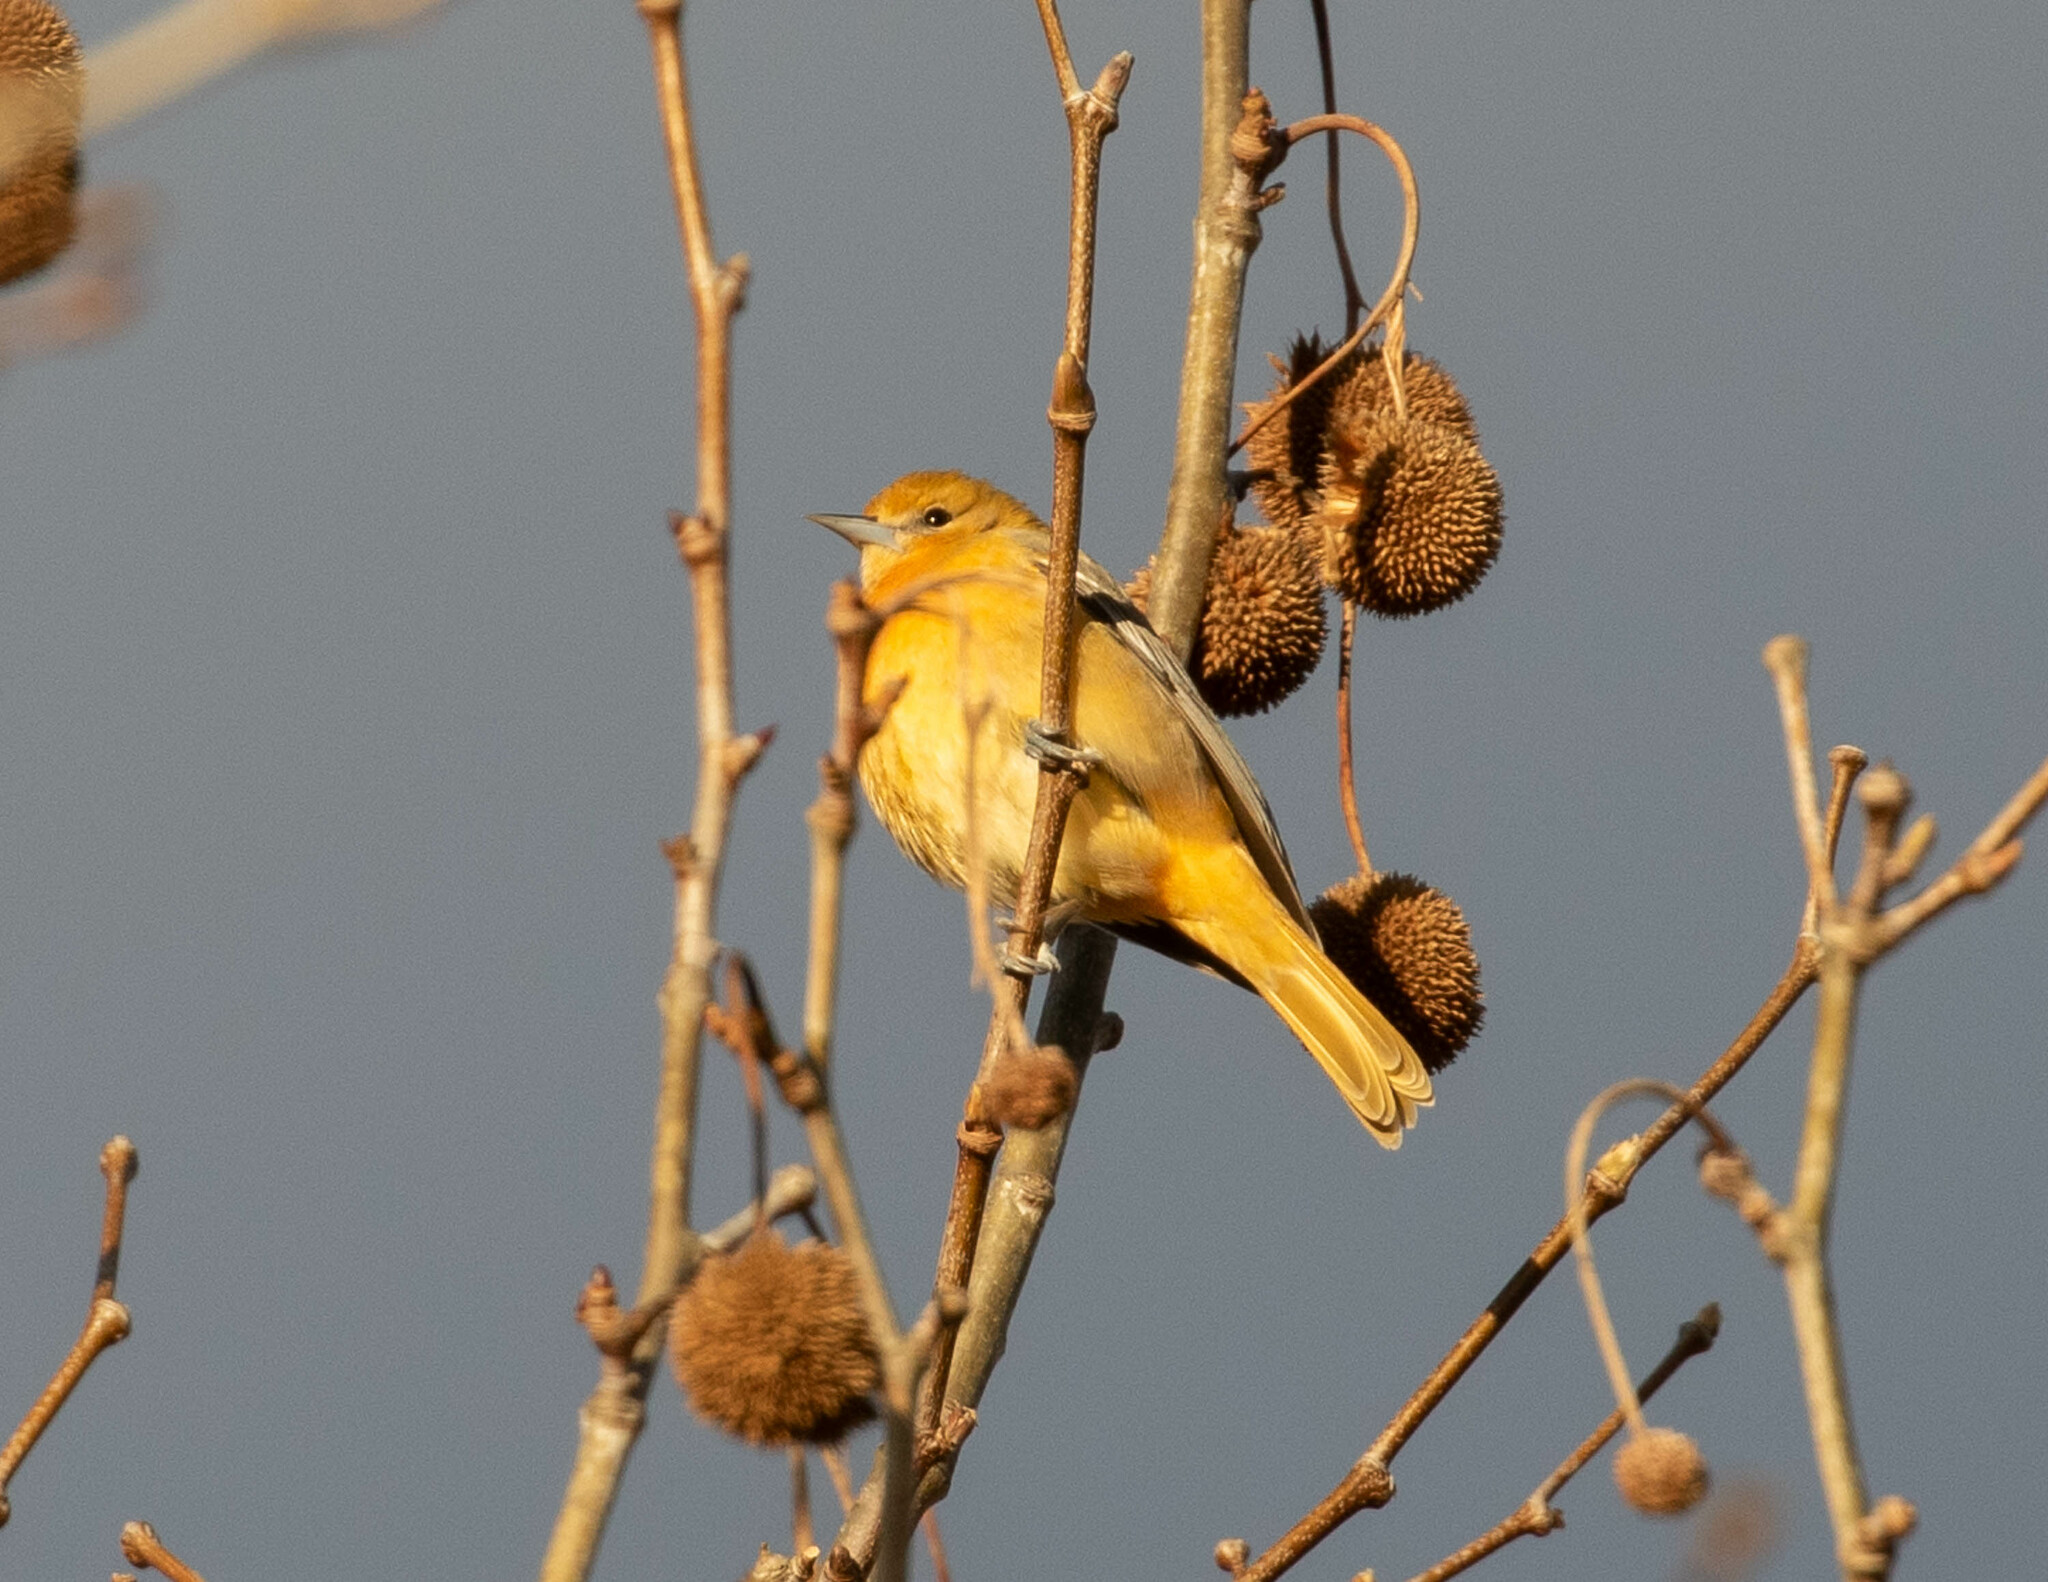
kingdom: Animalia
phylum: Chordata
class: Aves
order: Passeriformes
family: Icteridae
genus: Icterus
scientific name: Icterus galbula
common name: Baltimore oriole
